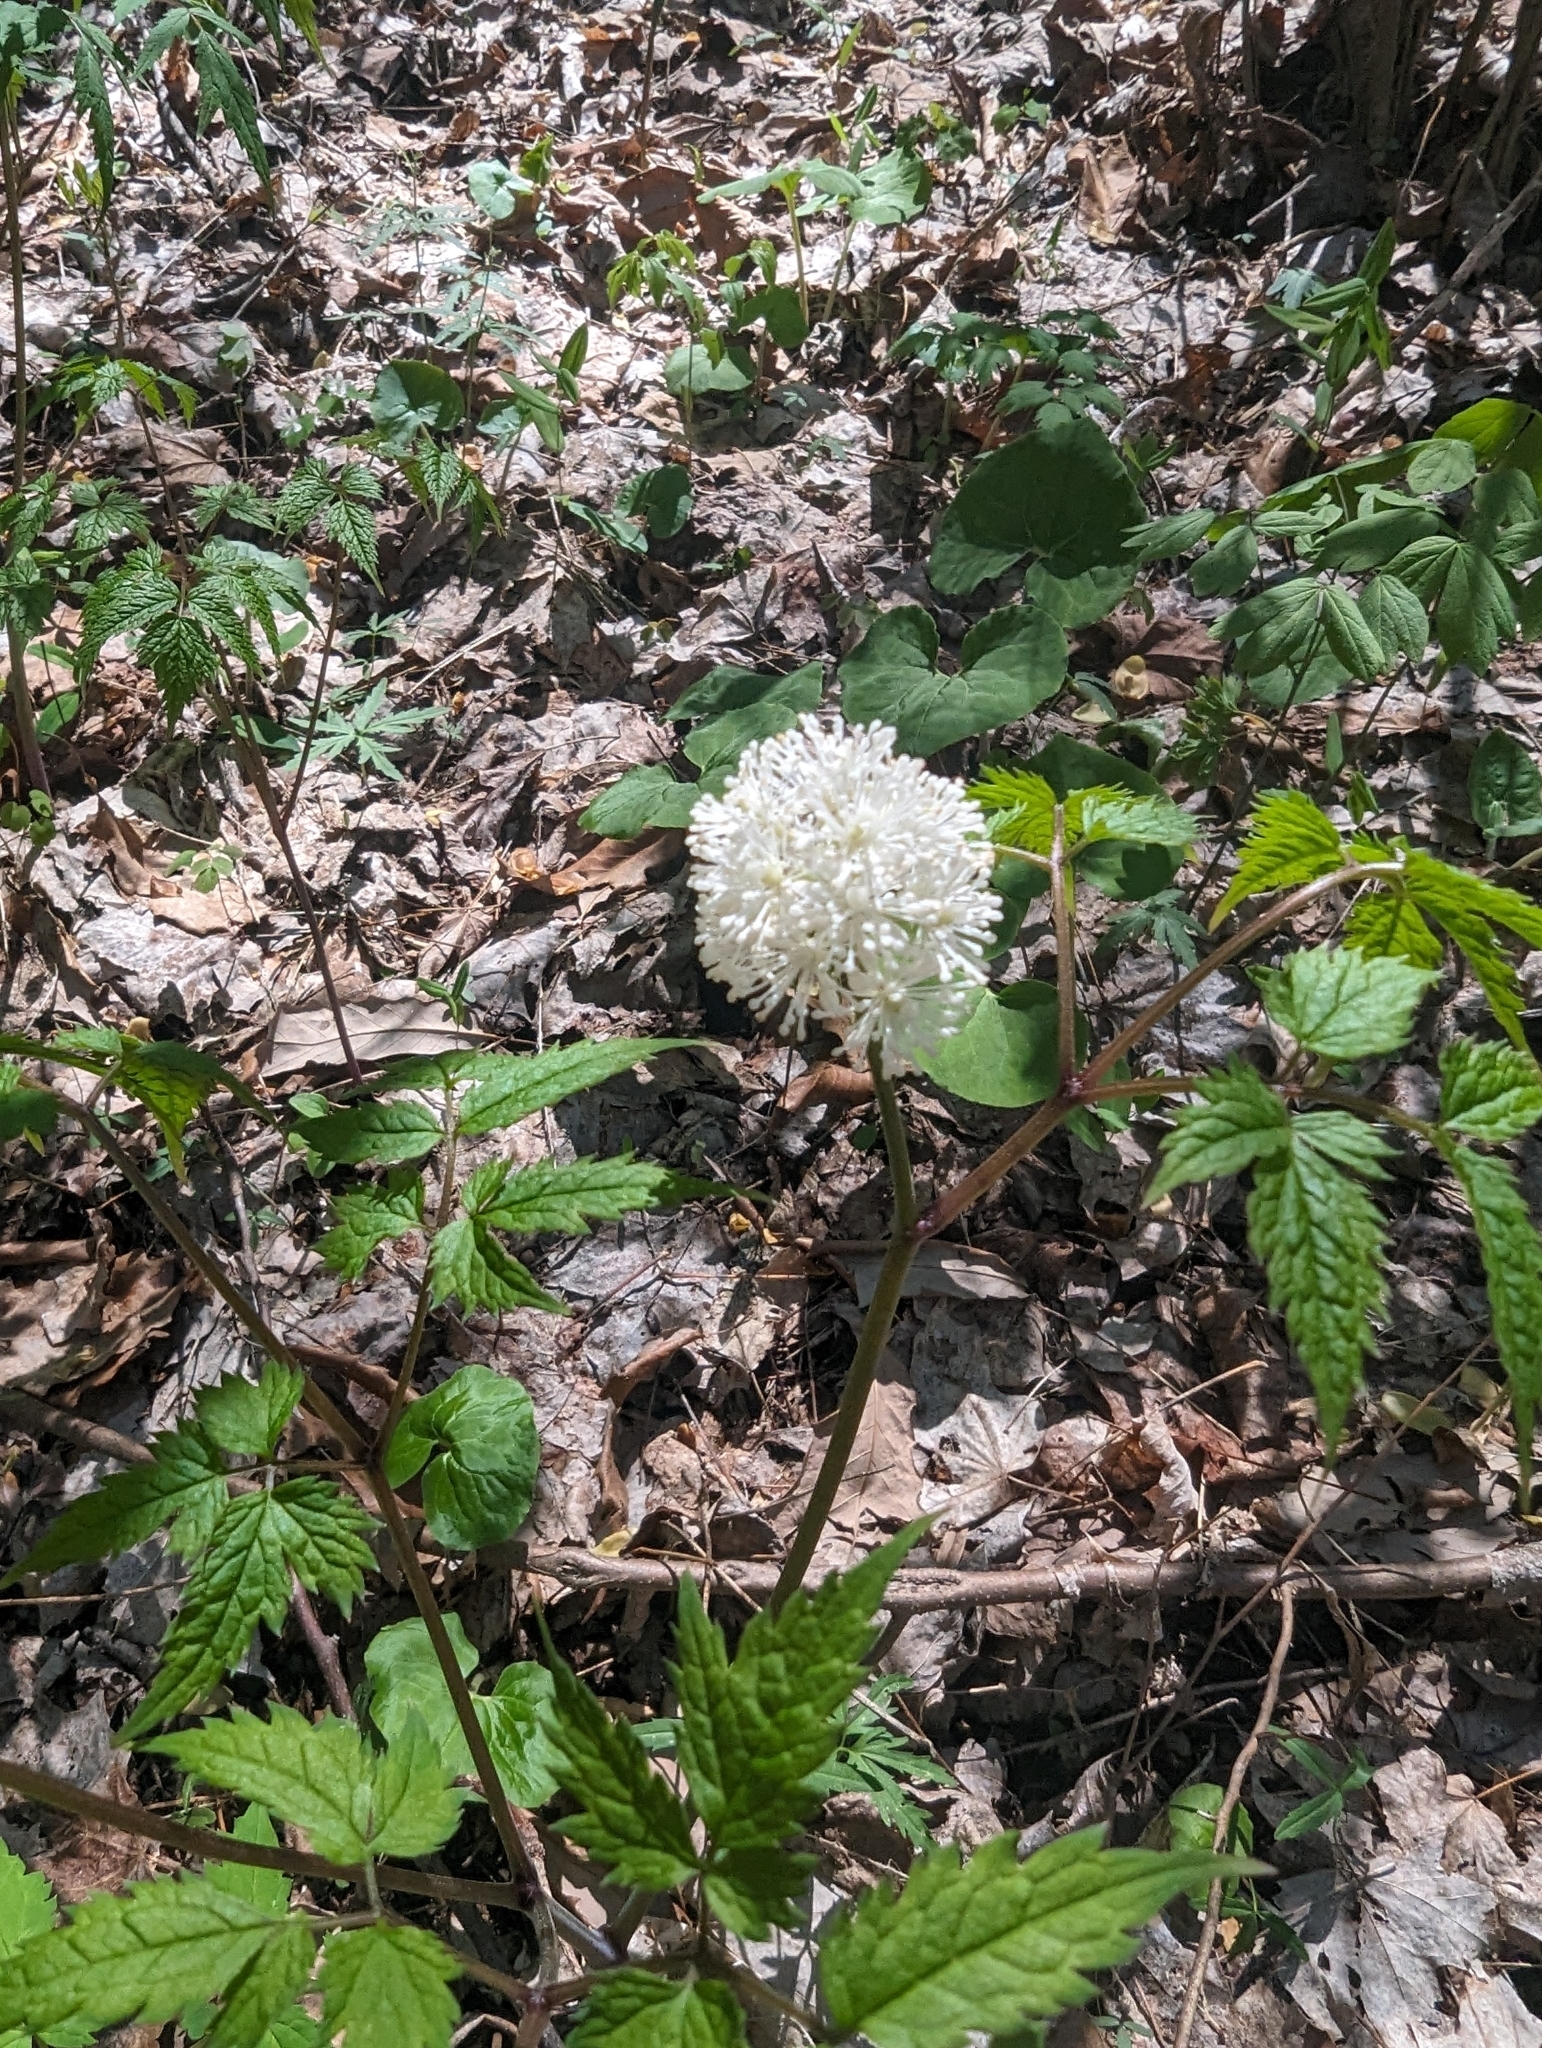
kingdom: Plantae
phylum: Tracheophyta
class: Magnoliopsida
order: Ranunculales
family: Ranunculaceae
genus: Actaea
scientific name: Actaea pachypoda
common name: Doll's-eyes
